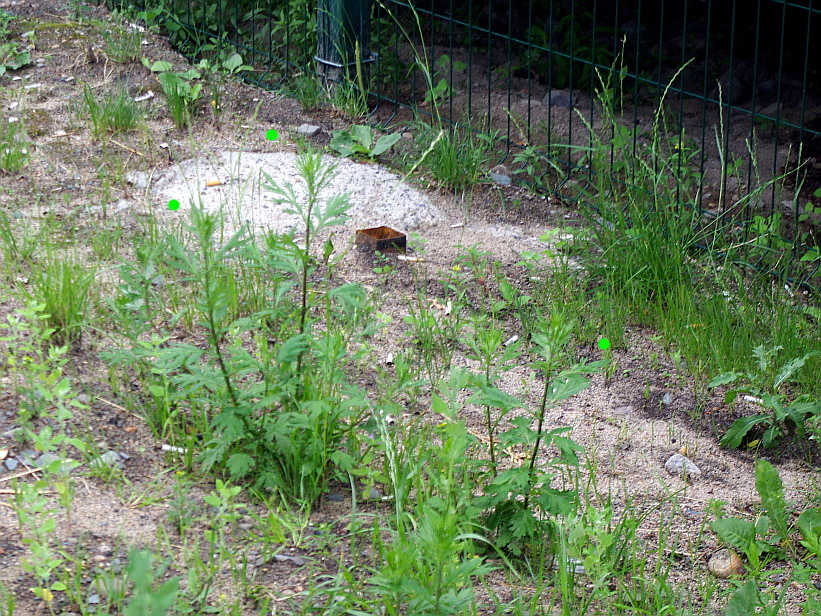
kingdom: Plantae
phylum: Tracheophyta
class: Magnoliopsida
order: Asterales
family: Asteraceae
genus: Artemisia
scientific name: Artemisia vulgaris
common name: Mugwort
